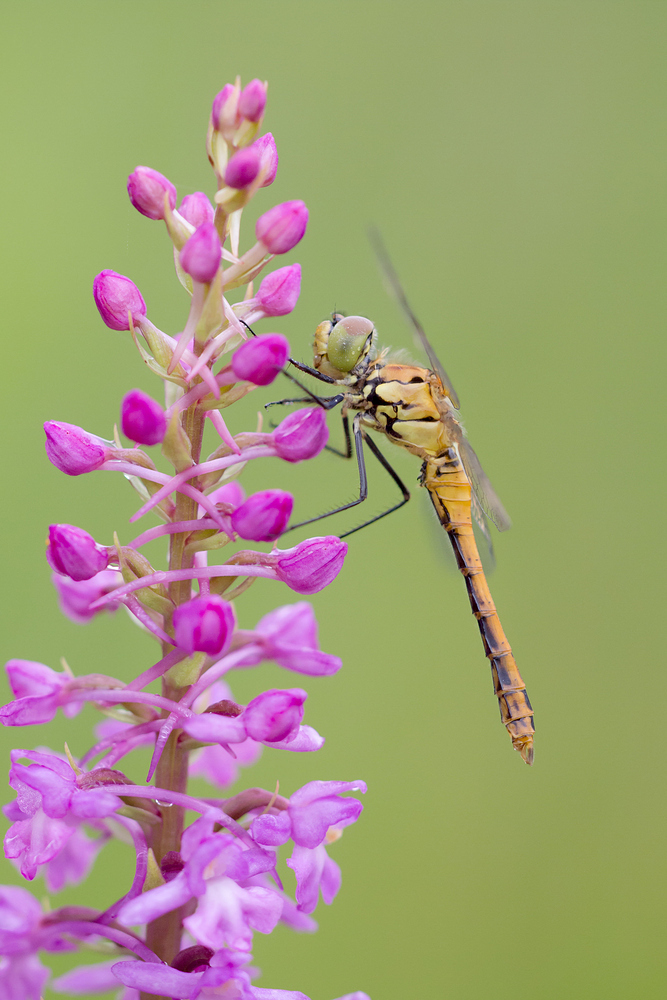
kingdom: Animalia
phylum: Arthropoda
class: Insecta
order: Odonata
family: Libellulidae
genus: Sympetrum
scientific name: Sympetrum sanguineum
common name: Ruddy darter
